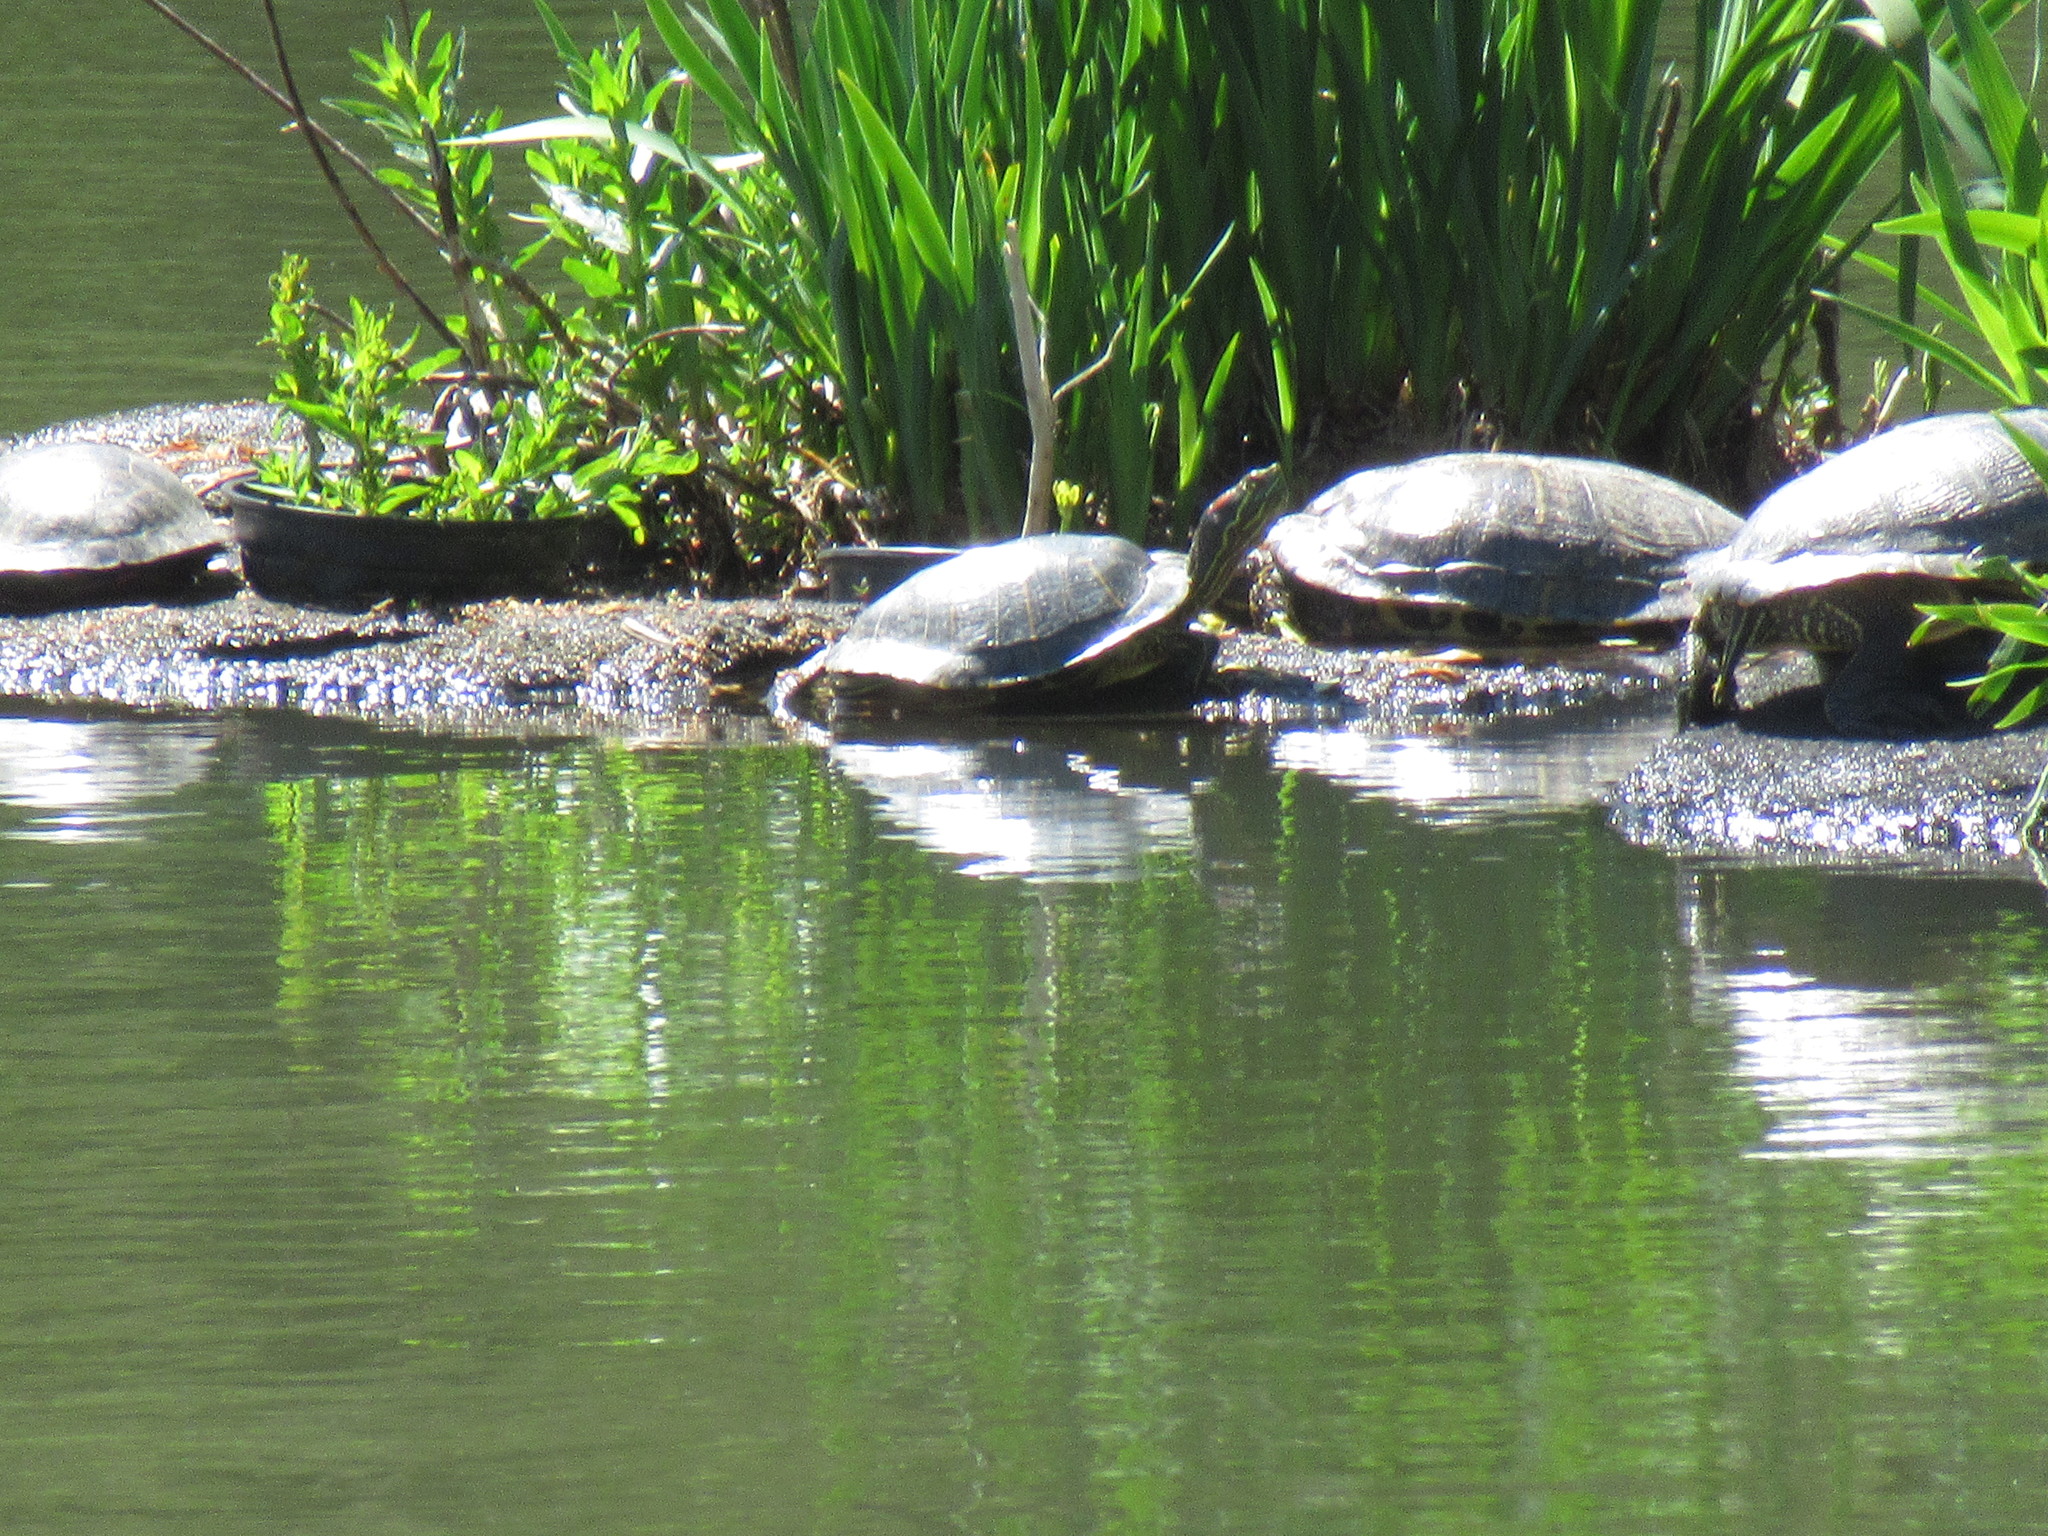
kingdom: Animalia
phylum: Chordata
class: Testudines
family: Emydidae
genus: Trachemys
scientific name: Trachemys scripta
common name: Slider
